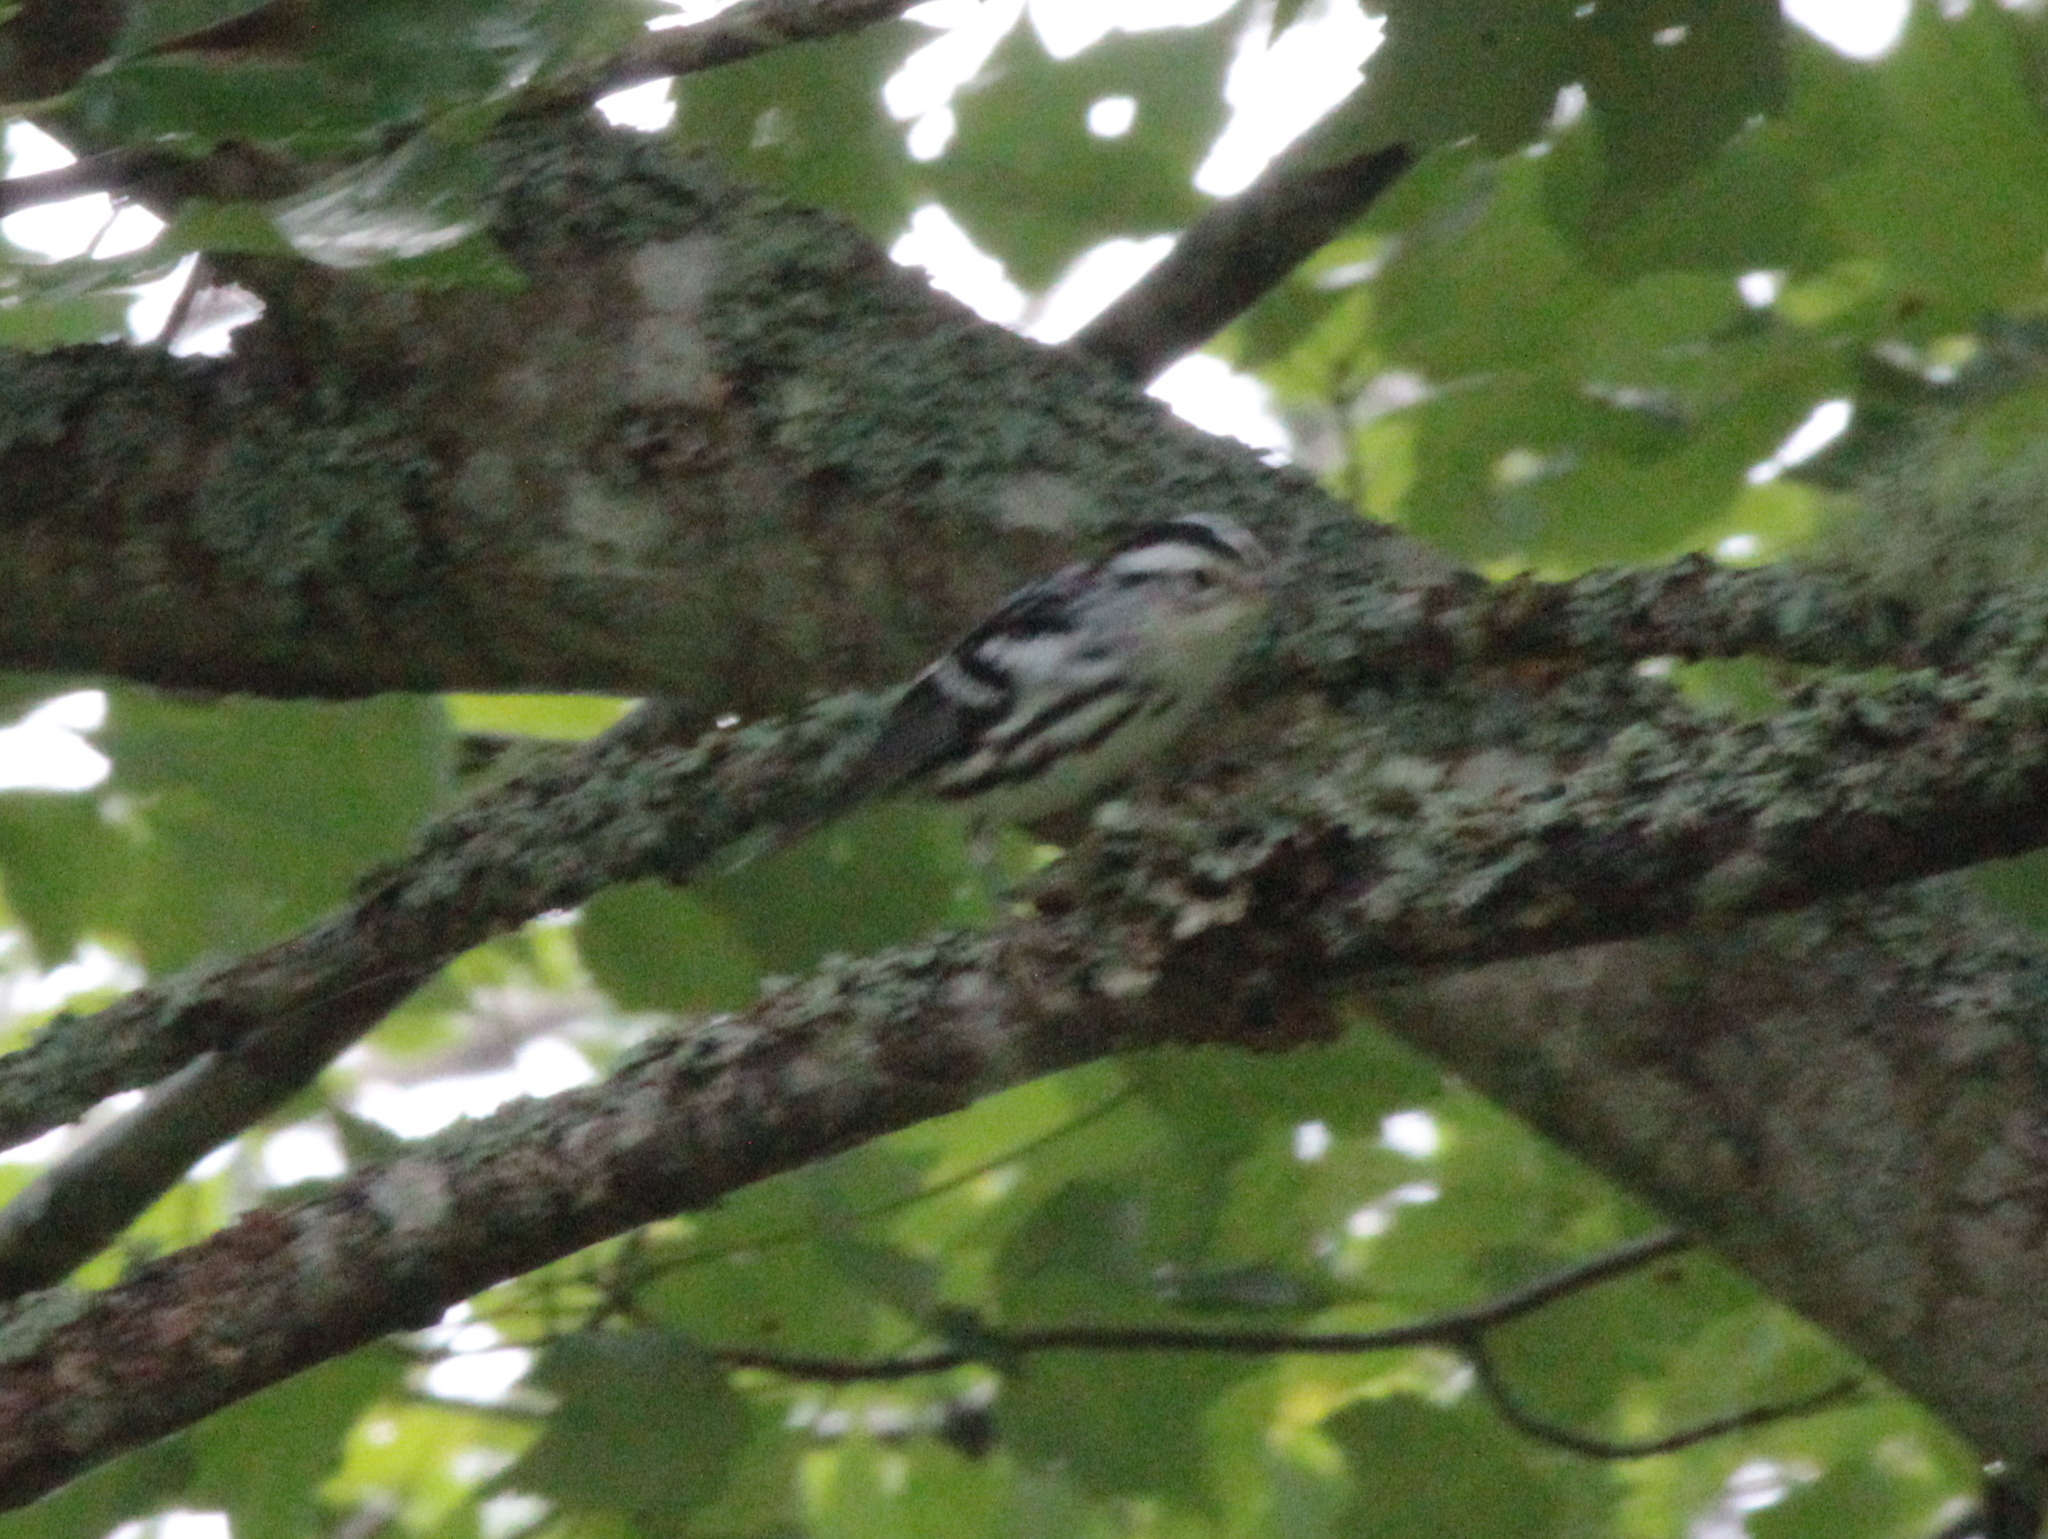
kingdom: Animalia
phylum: Chordata
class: Aves
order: Passeriformes
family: Parulidae
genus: Mniotilta
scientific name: Mniotilta varia
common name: Black-and-white warbler
